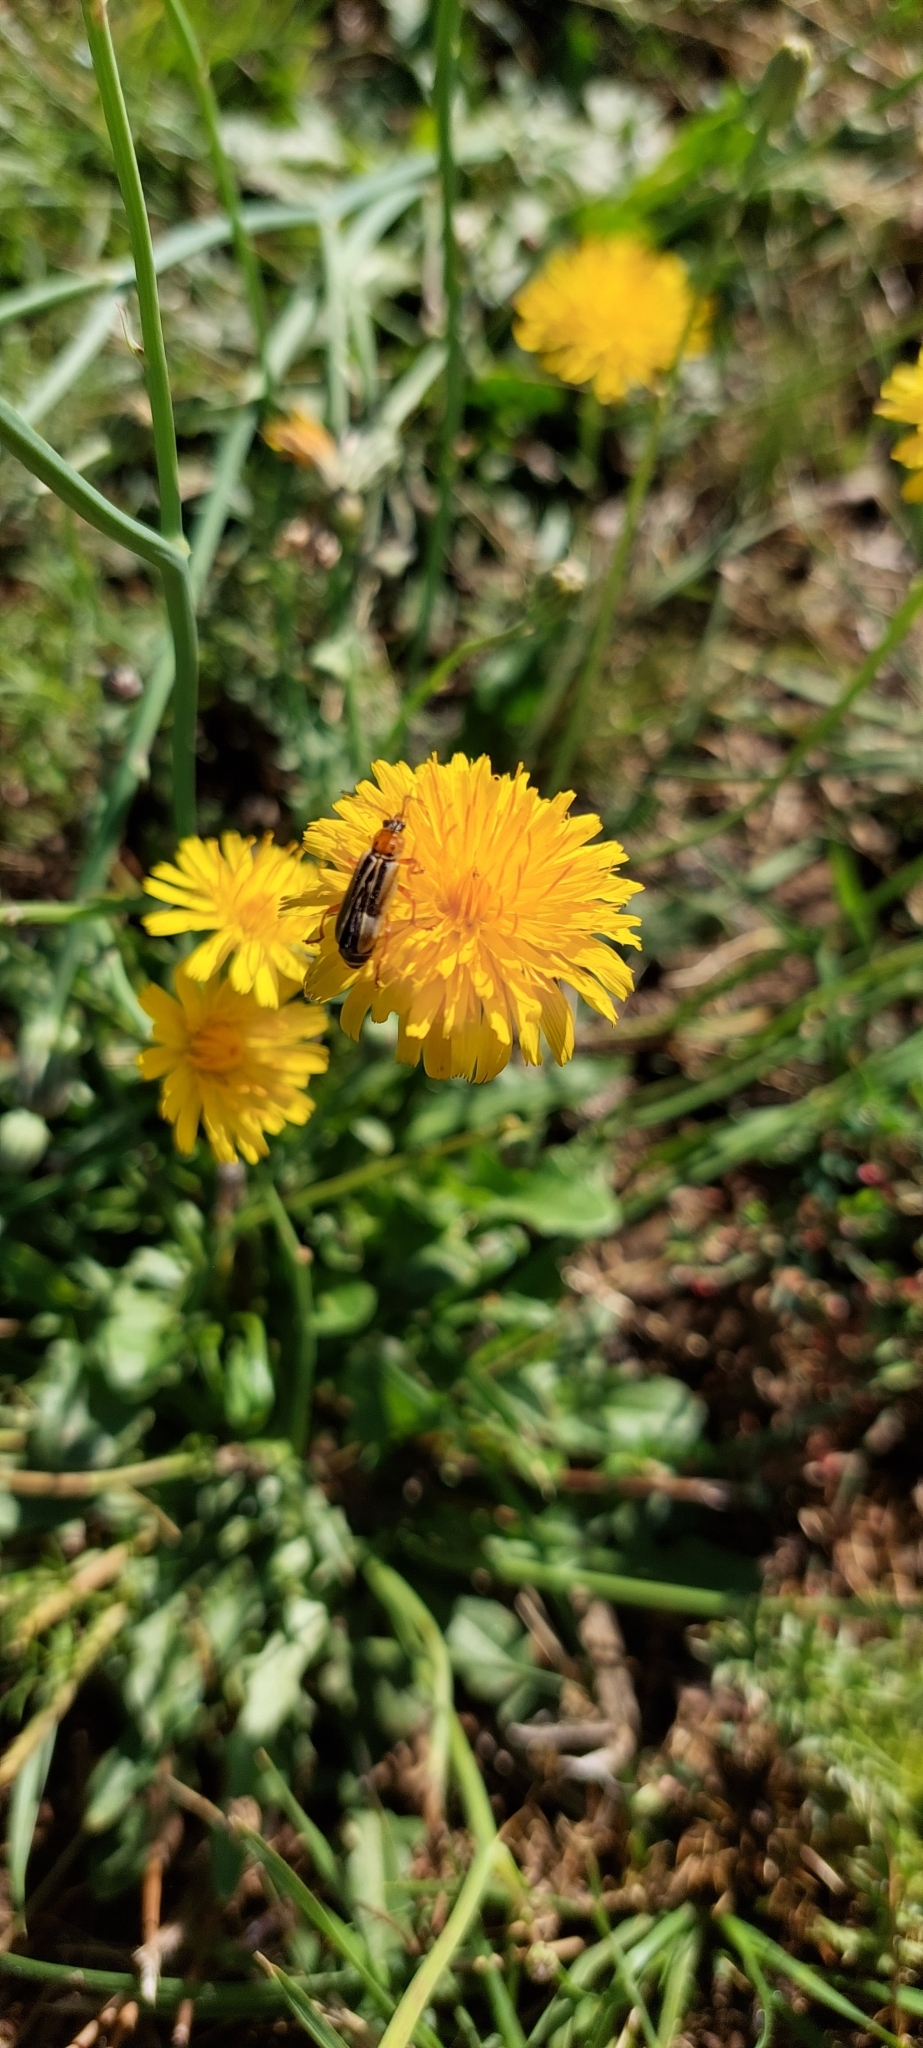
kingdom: Plantae
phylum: Tracheophyta
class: Magnoliopsida
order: Asterales
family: Asteraceae
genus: Hypochaeris
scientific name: Hypochaeris radicata
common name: Flatweed
